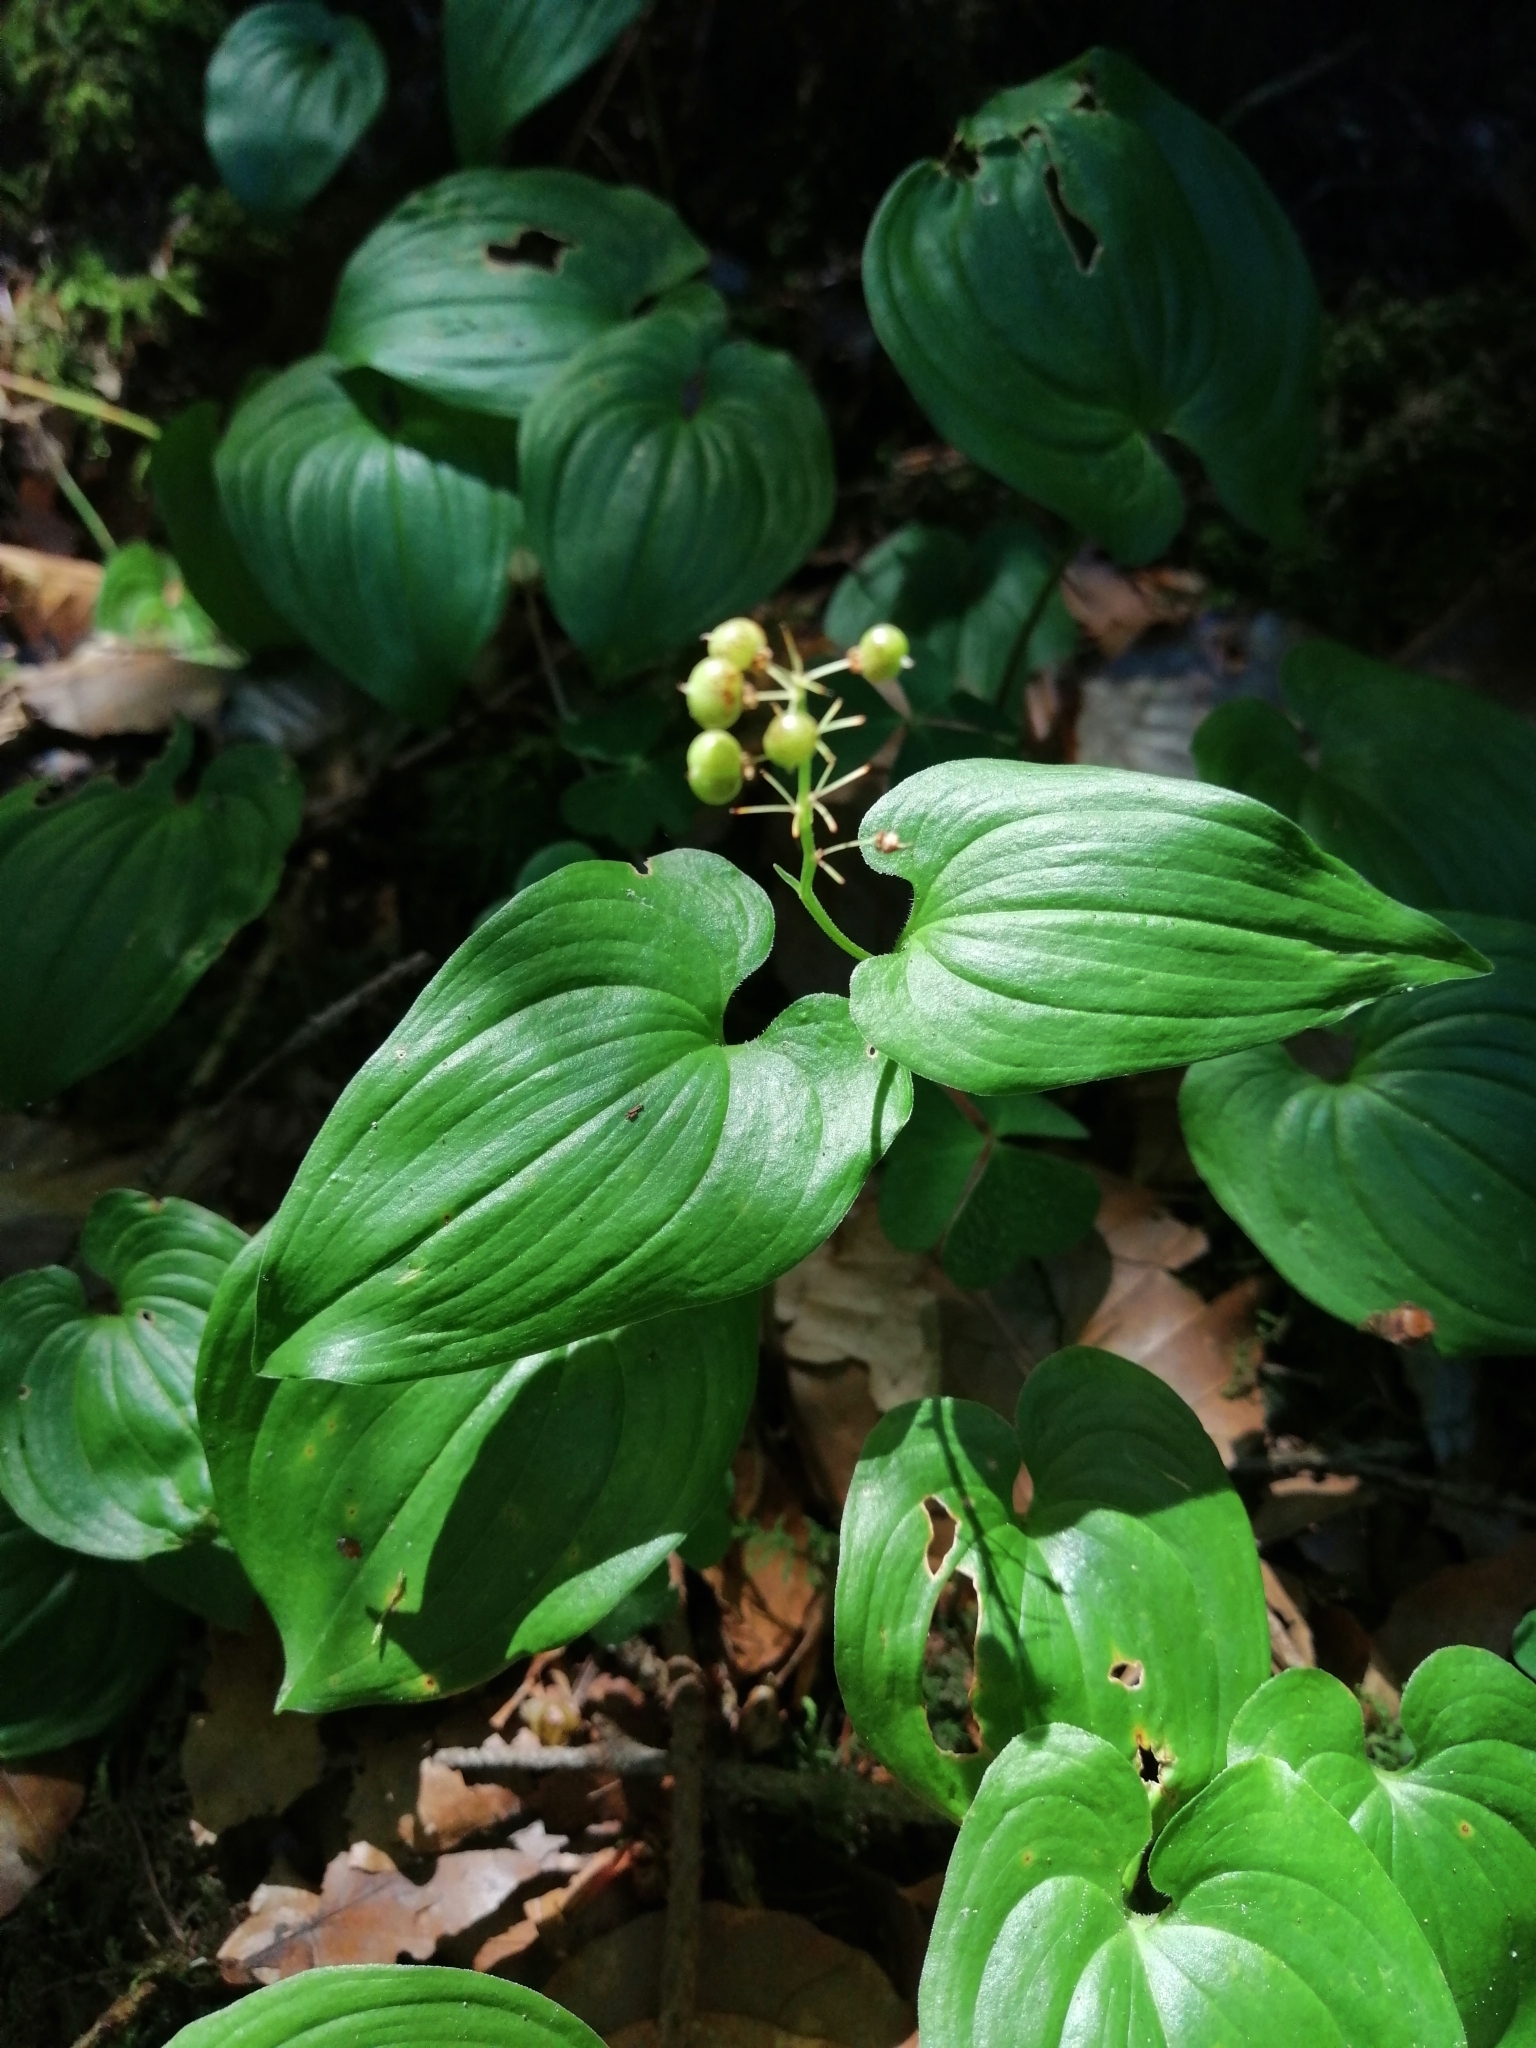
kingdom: Plantae
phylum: Tracheophyta
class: Liliopsida
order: Asparagales
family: Asparagaceae
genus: Maianthemum
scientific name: Maianthemum bifolium
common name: May lily
